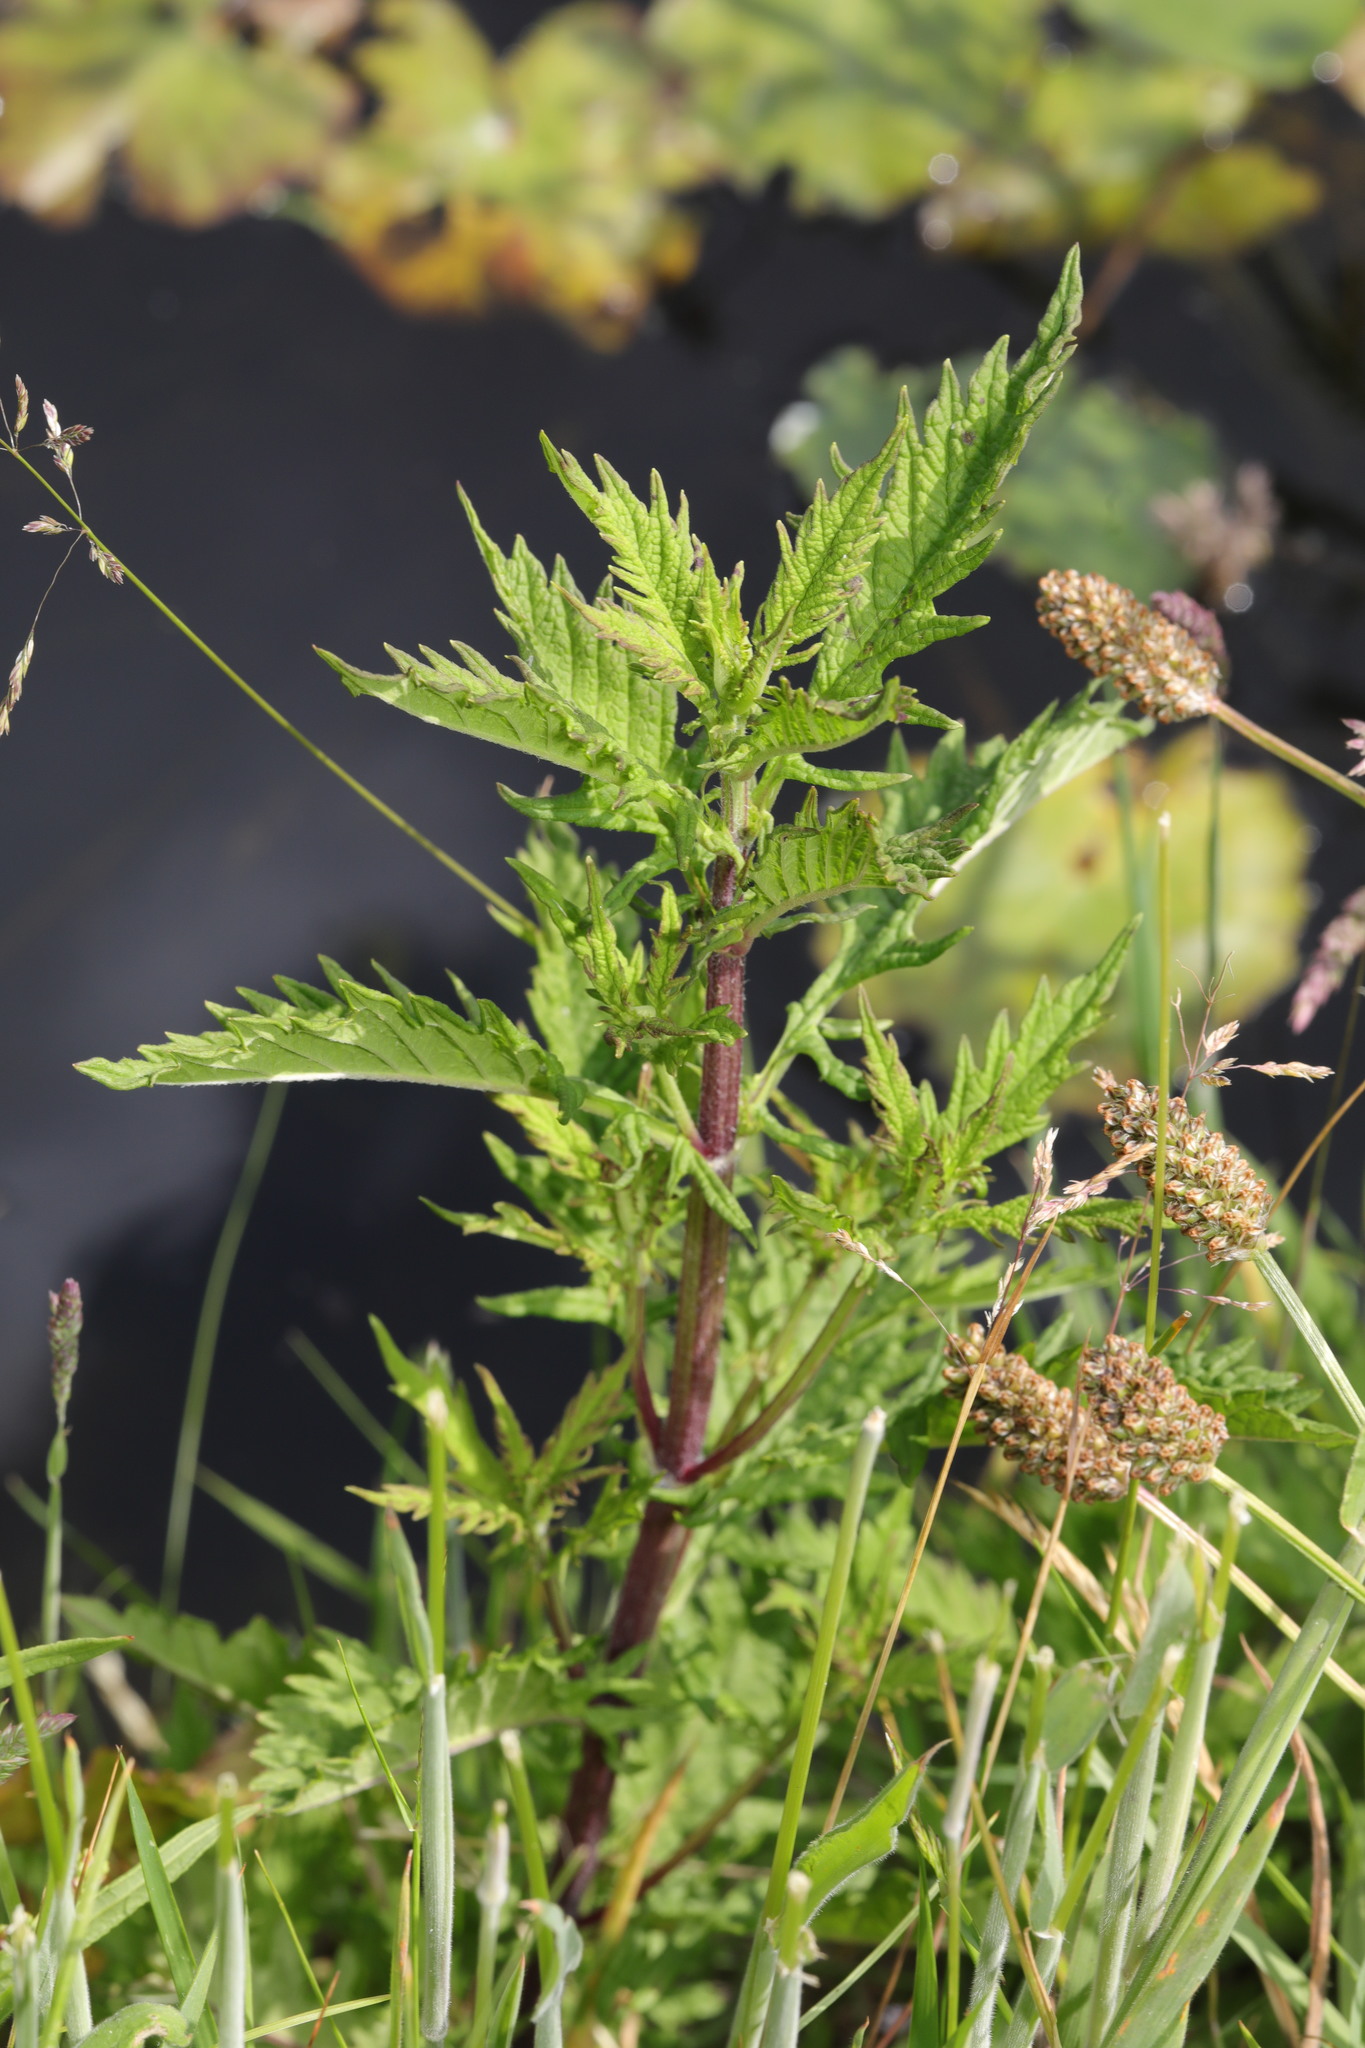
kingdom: Plantae
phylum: Tracheophyta
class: Magnoliopsida
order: Lamiales
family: Lamiaceae
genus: Lycopus
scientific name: Lycopus europaeus
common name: European bugleweed
